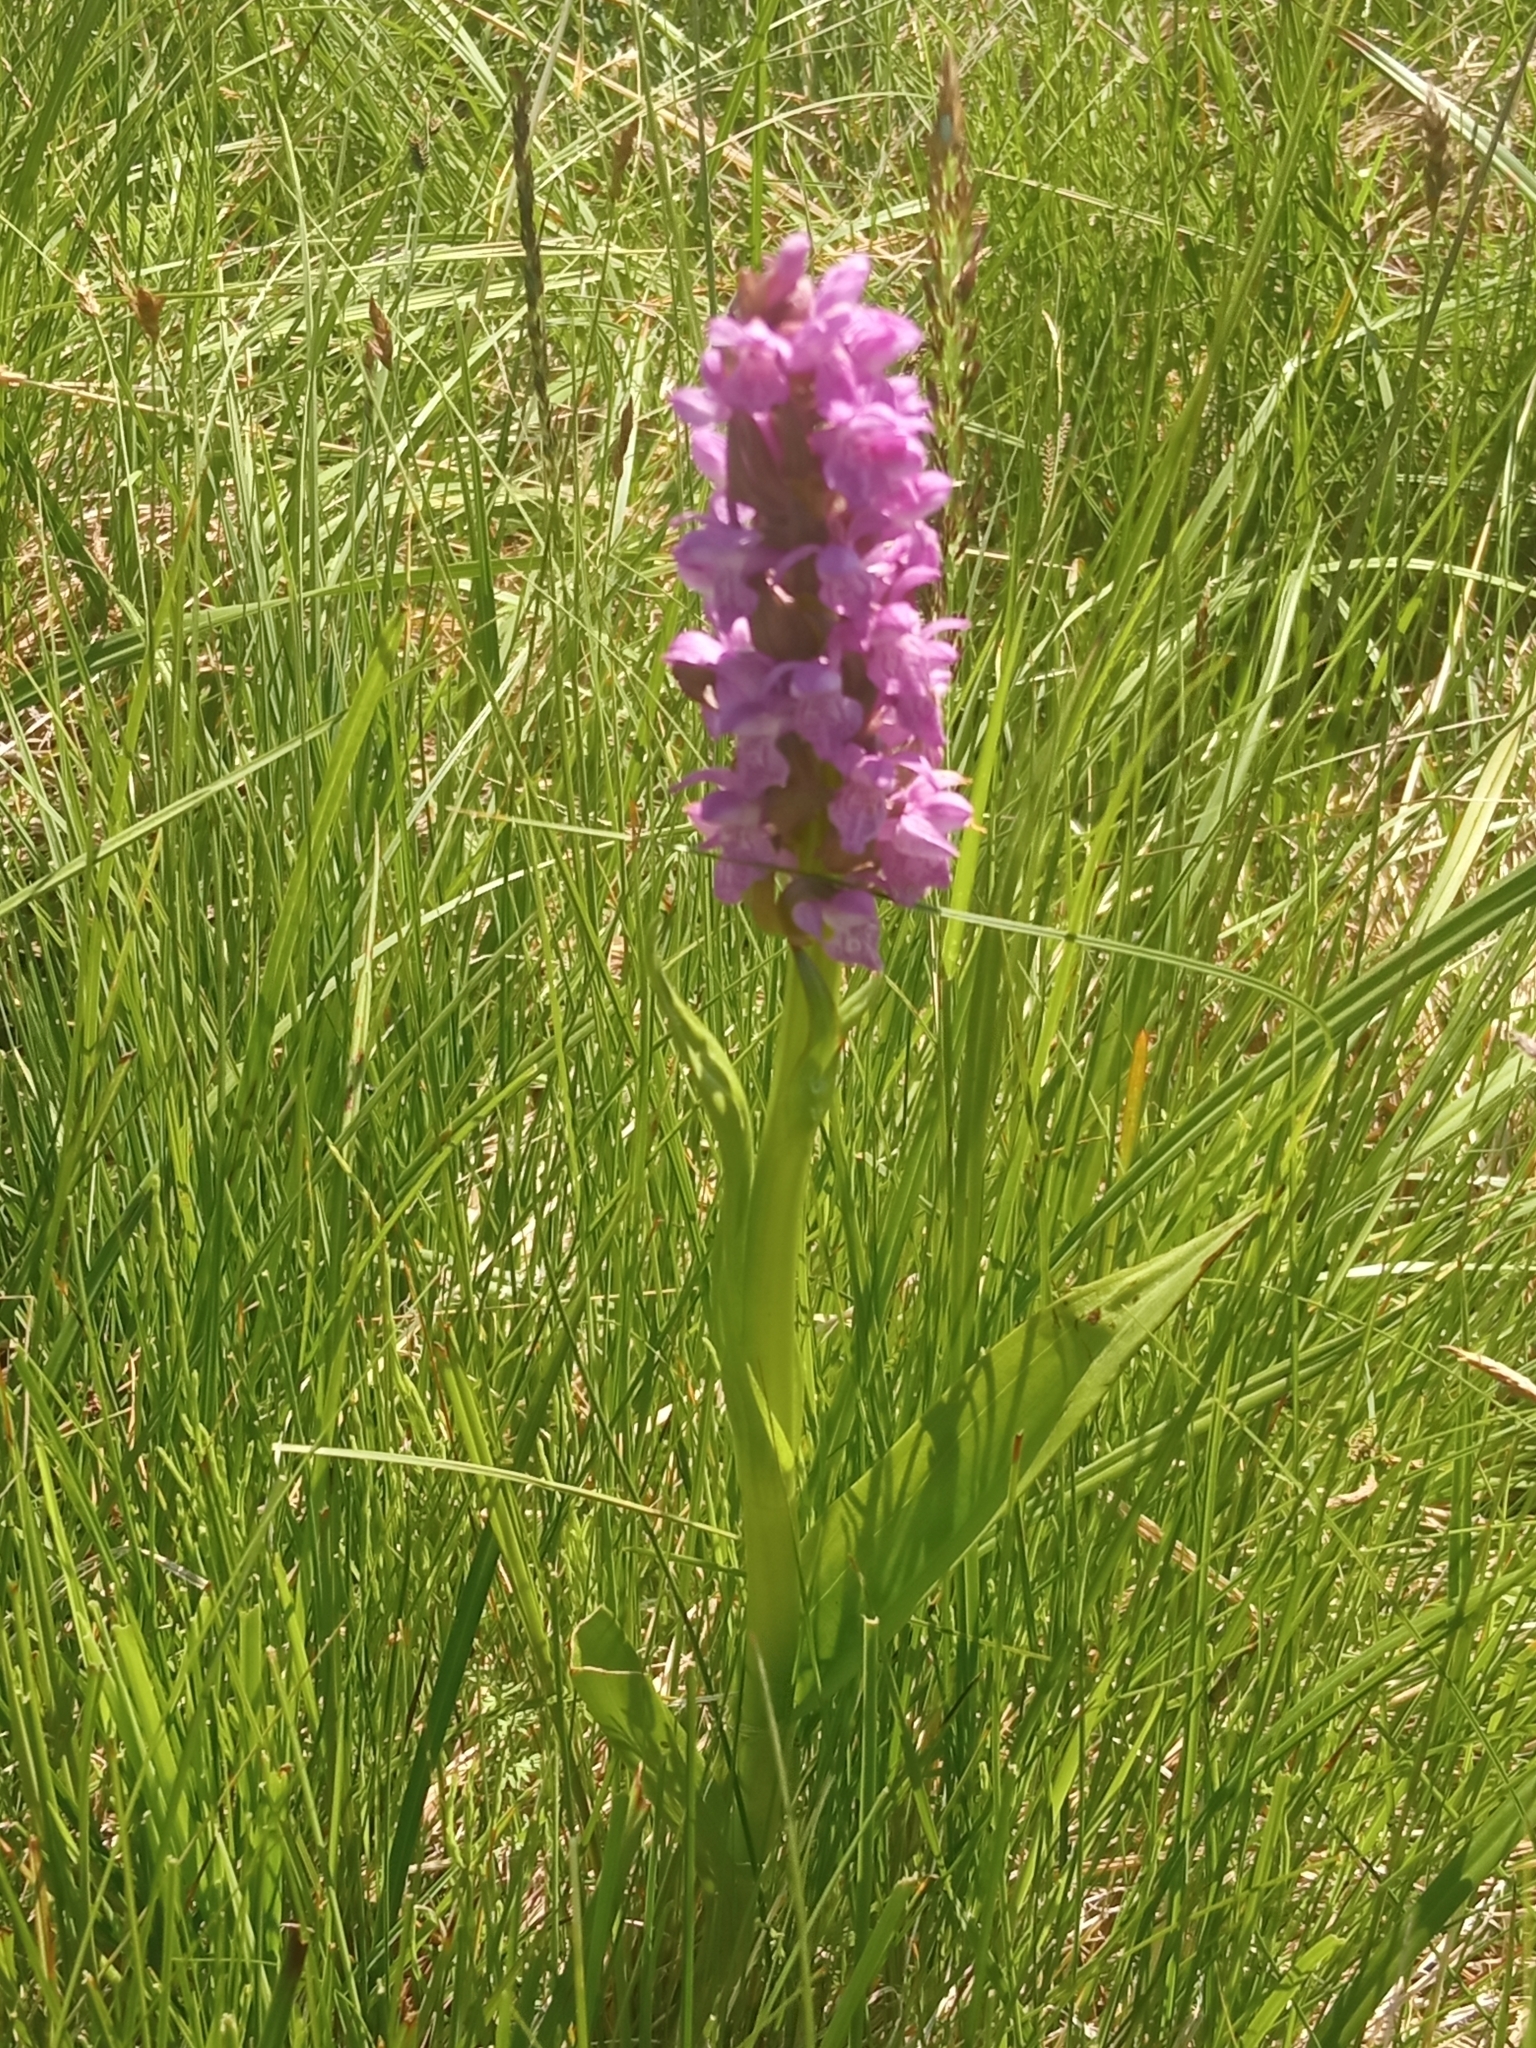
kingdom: Plantae
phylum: Tracheophyta
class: Liliopsida
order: Asparagales
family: Orchidaceae
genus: Dactylorhiza
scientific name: Dactylorhiza incarnata
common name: Early marsh-orchid
